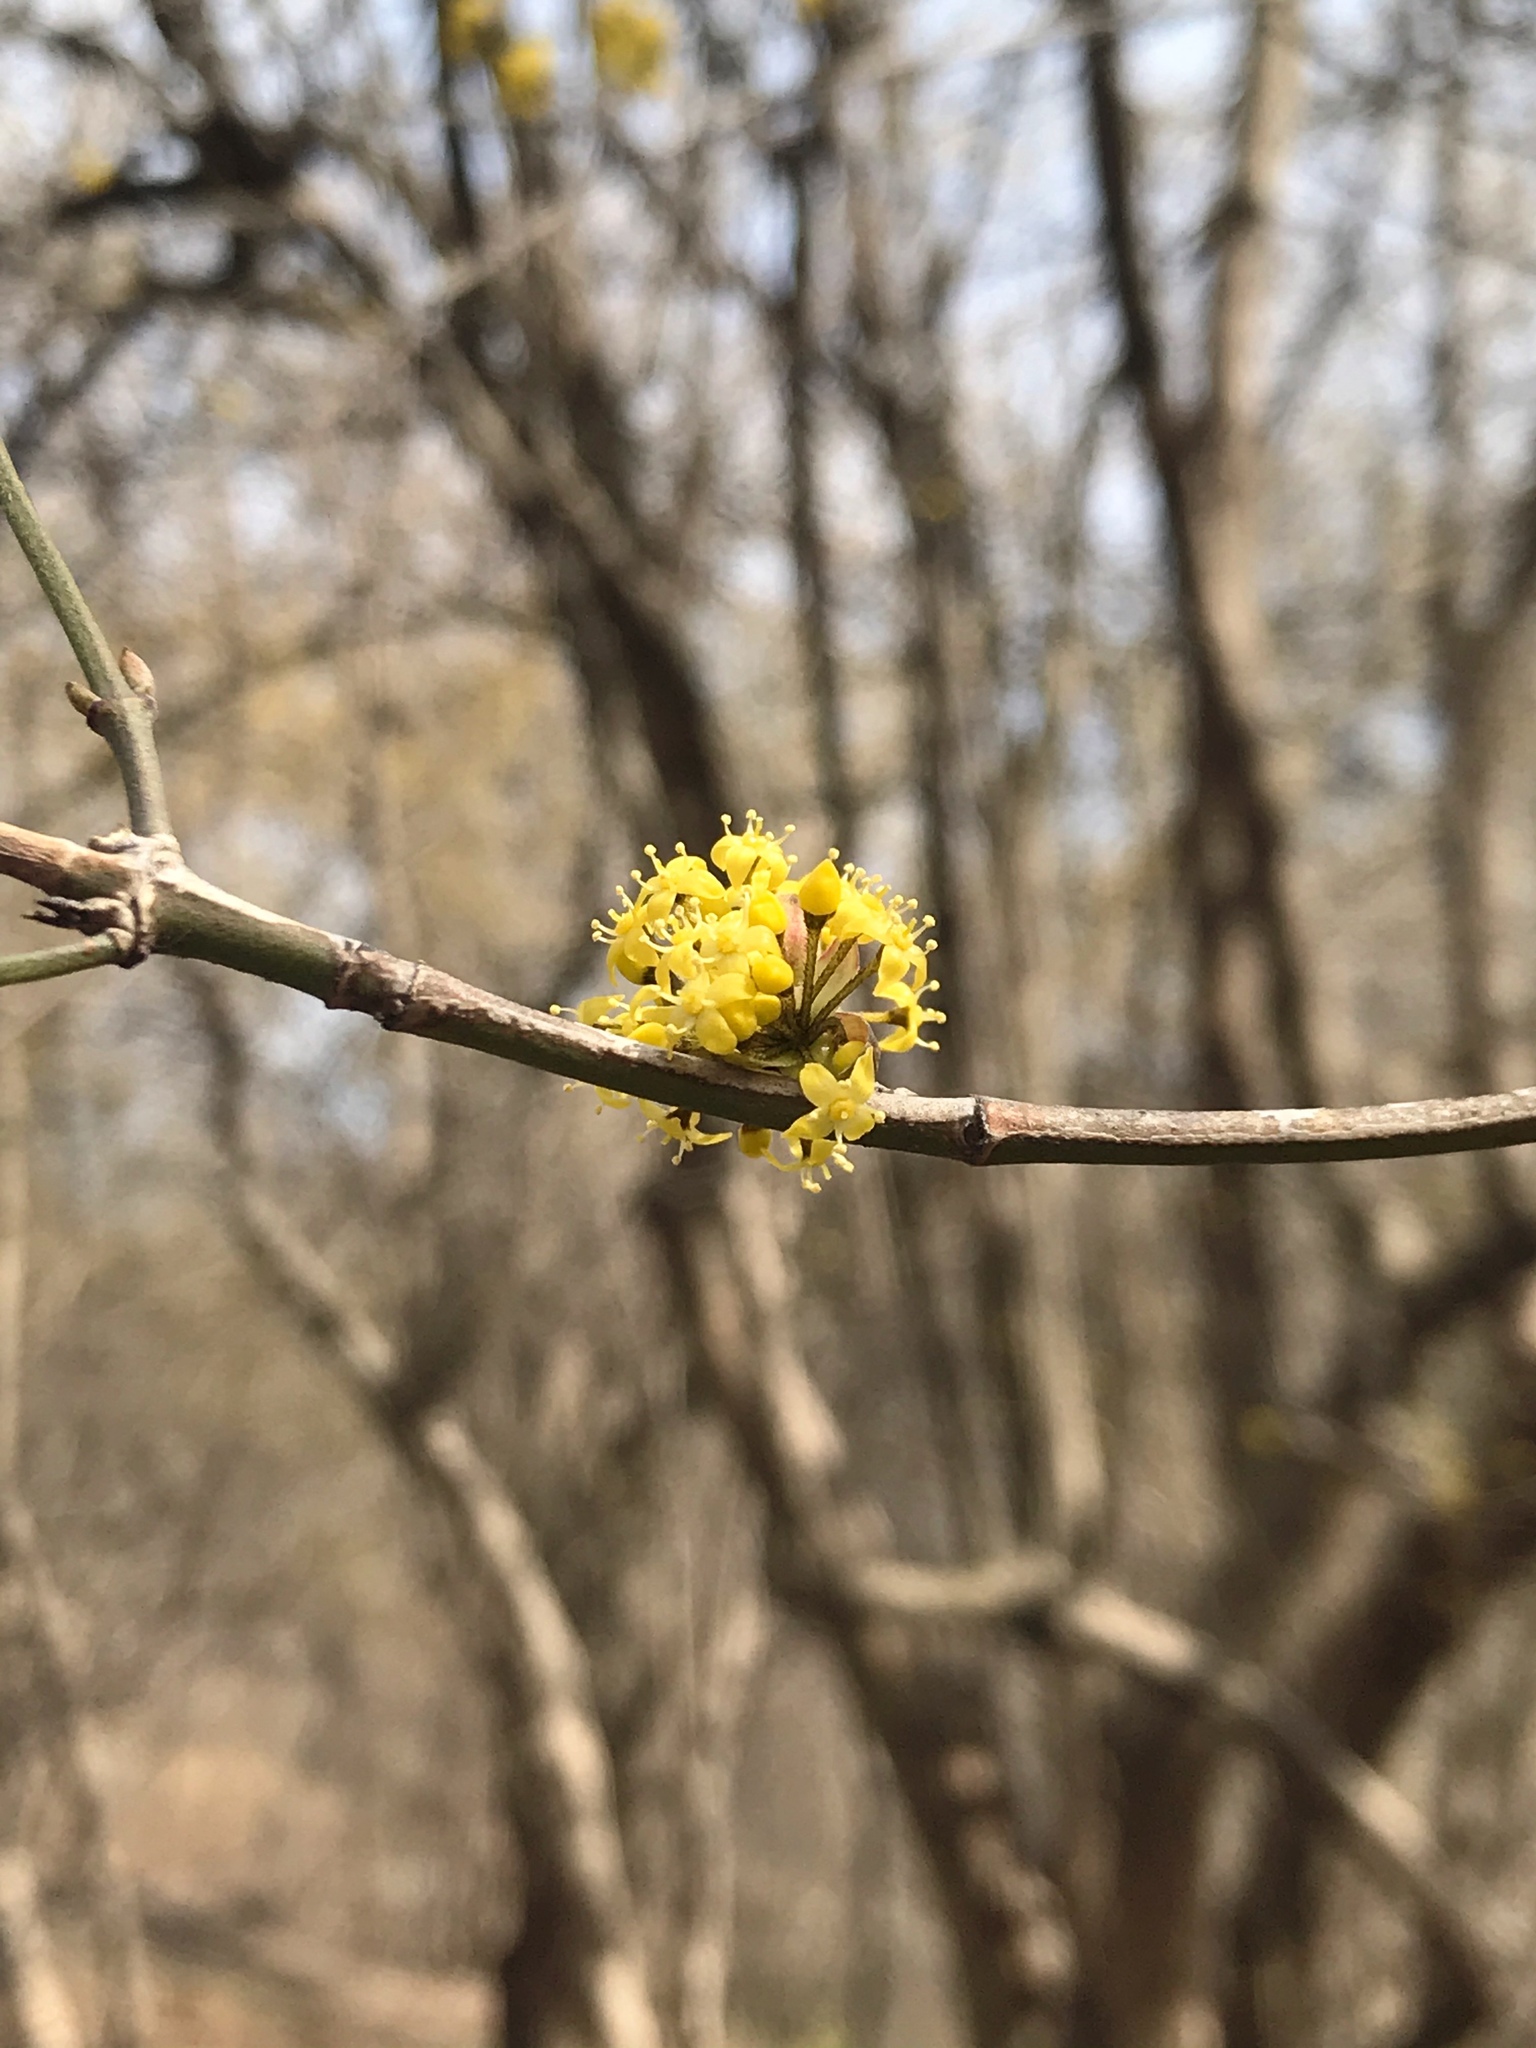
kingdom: Plantae
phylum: Tracheophyta
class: Magnoliopsida
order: Cornales
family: Cornaceae
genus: Cornus
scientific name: Cornus mas
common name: Cornelian-cherry
